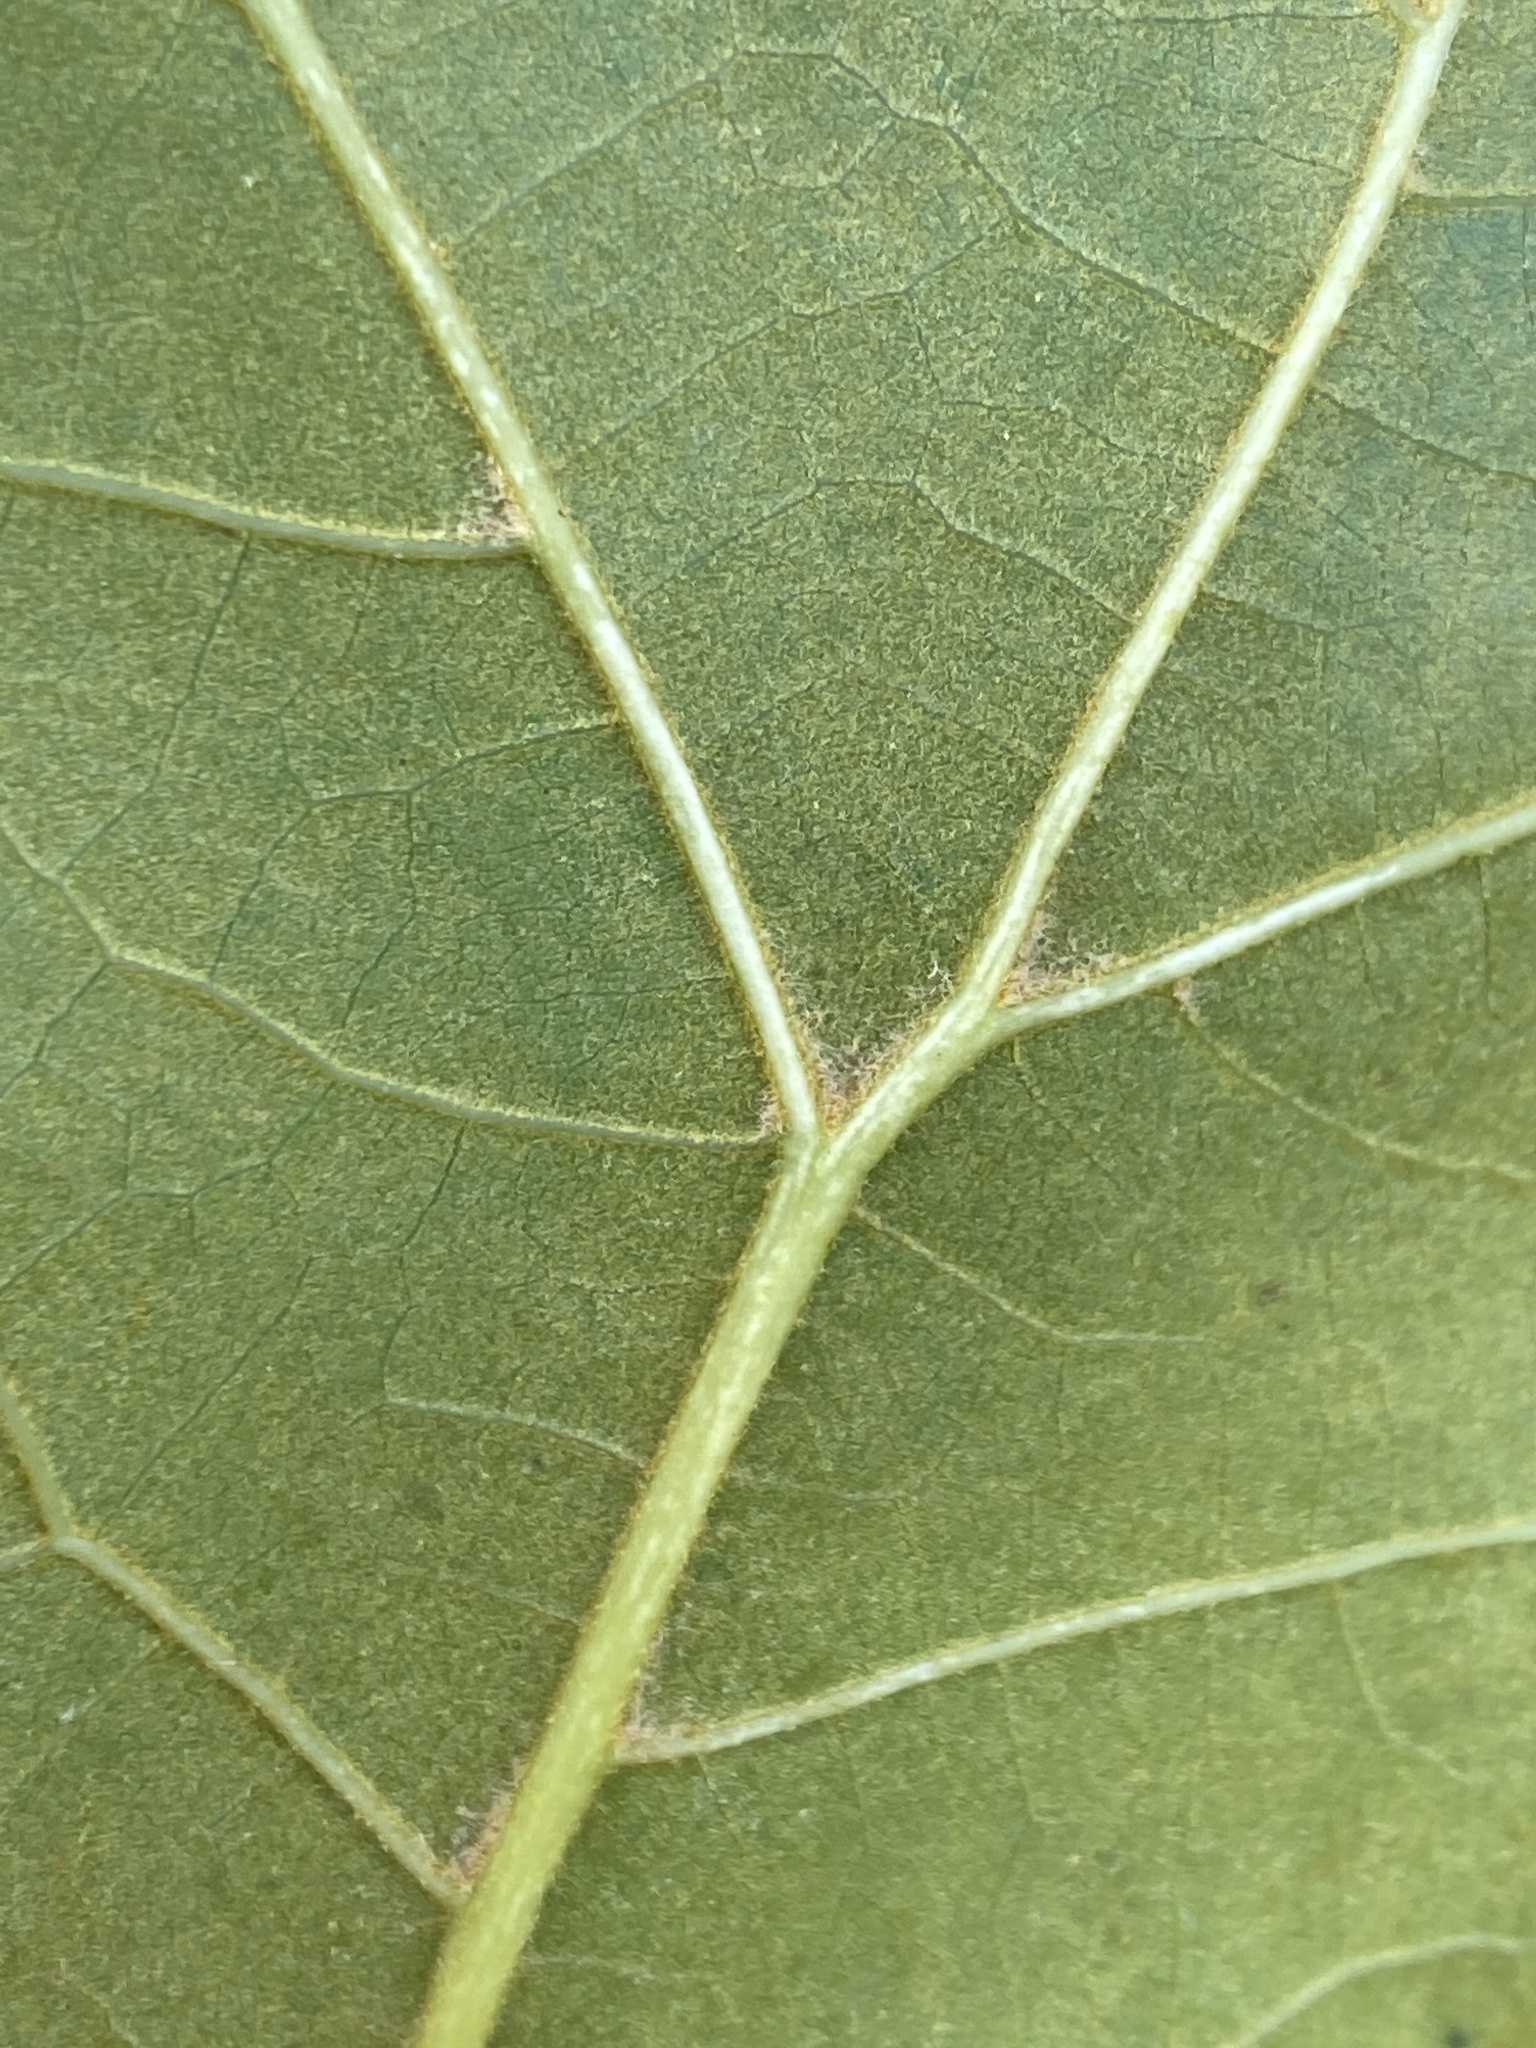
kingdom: Plantae
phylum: Tracheophyta
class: Magnoliopsida
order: Fagales
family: Fagaceae
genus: Quercus
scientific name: Quercus marilandica
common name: Blackjack oak
